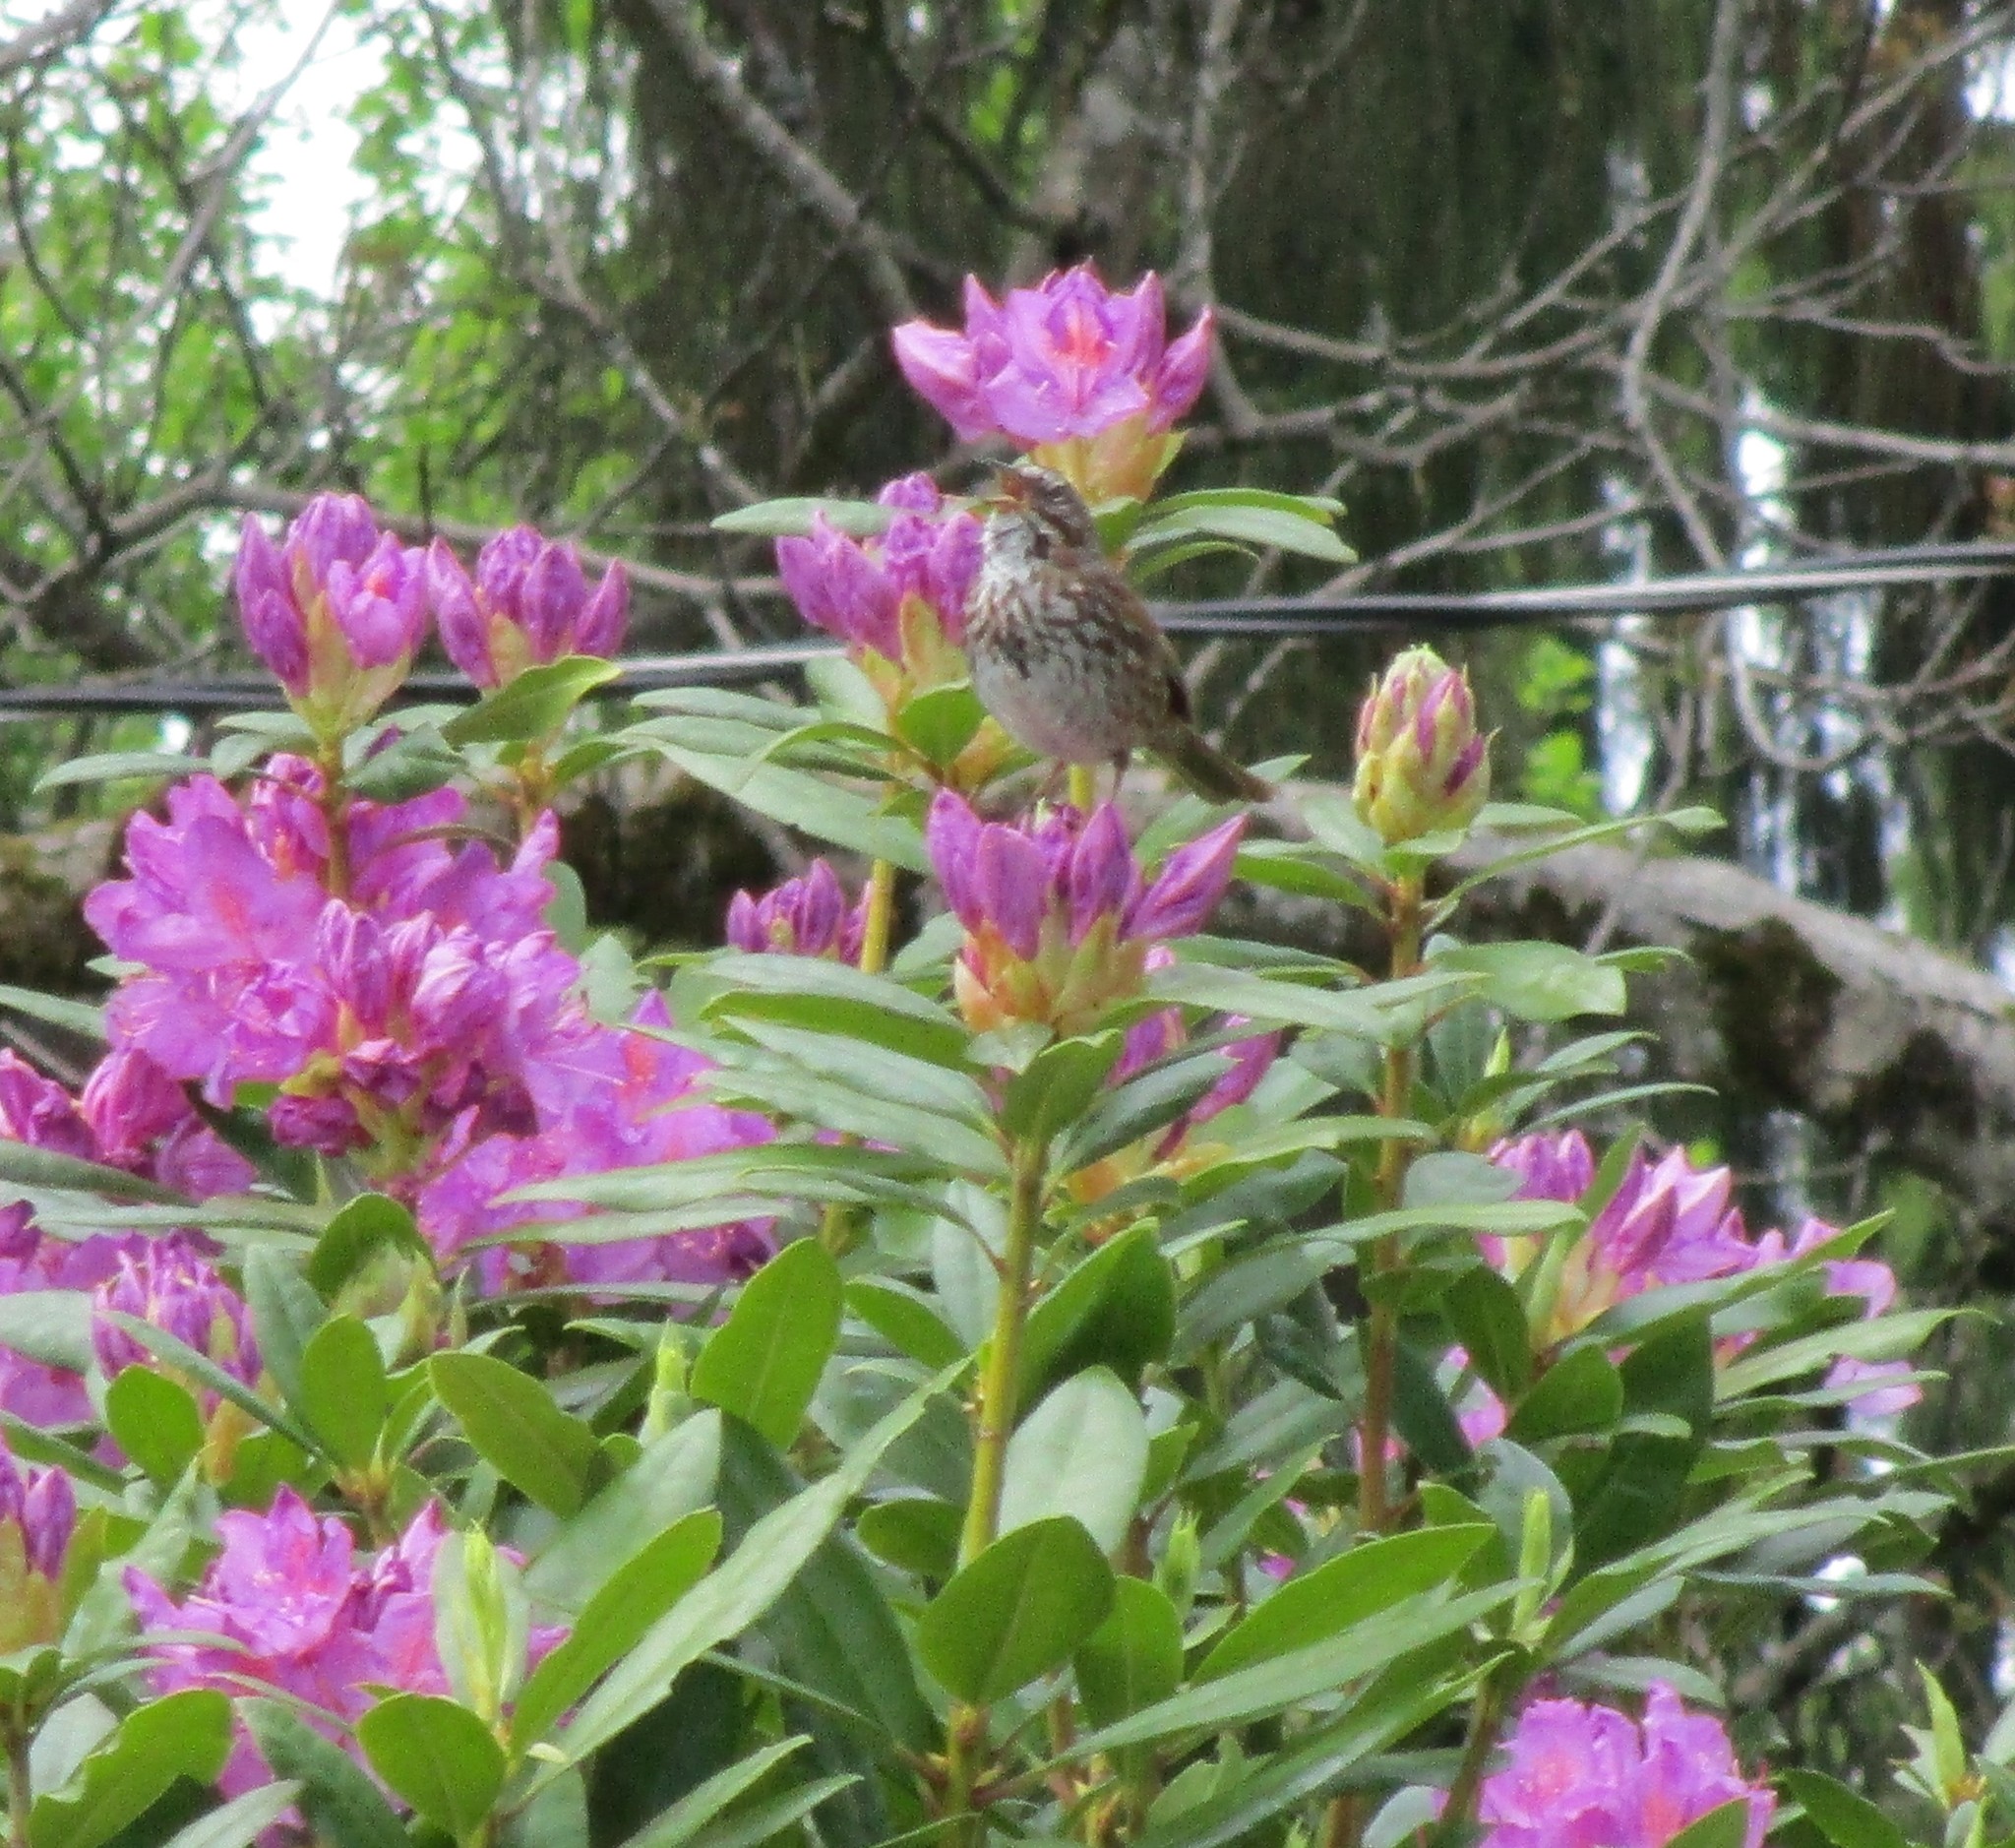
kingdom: Animalia
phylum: Chordata
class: Aves
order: Passeriformes
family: Passerellidae
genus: Melospiza
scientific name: Melospiza melodia
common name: Song sparrow
